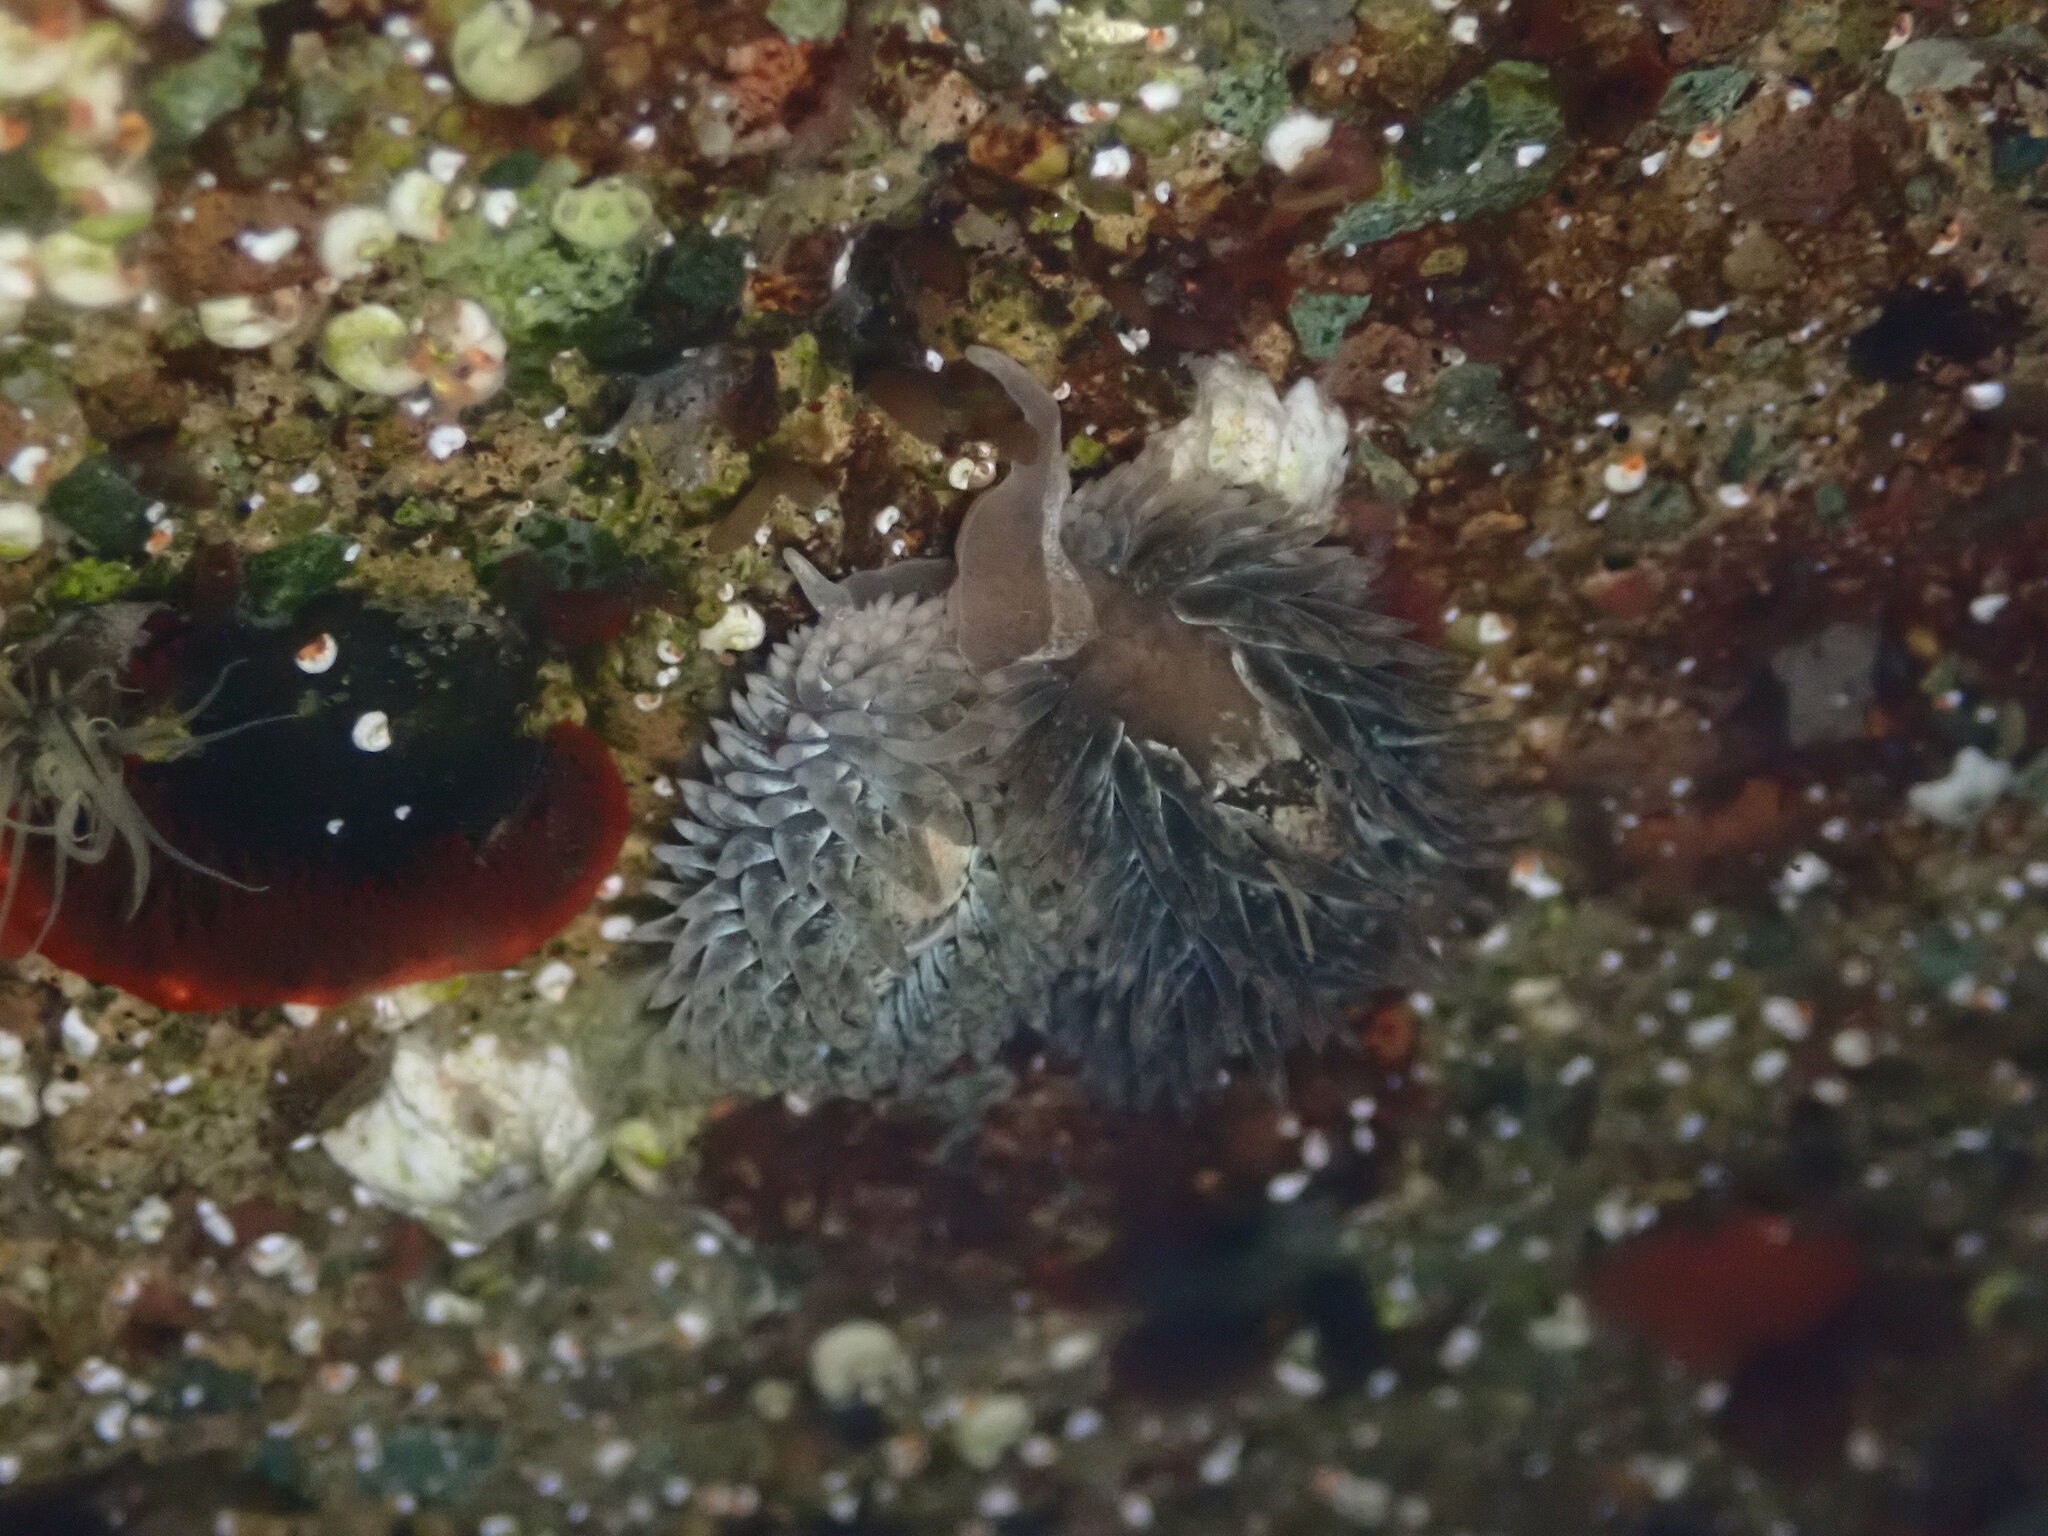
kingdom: Animalia
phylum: Mollusca
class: Gastropoda
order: Nudibranchia
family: Aeolidiidae
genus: Aeolidia
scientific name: Aeolidia loui
